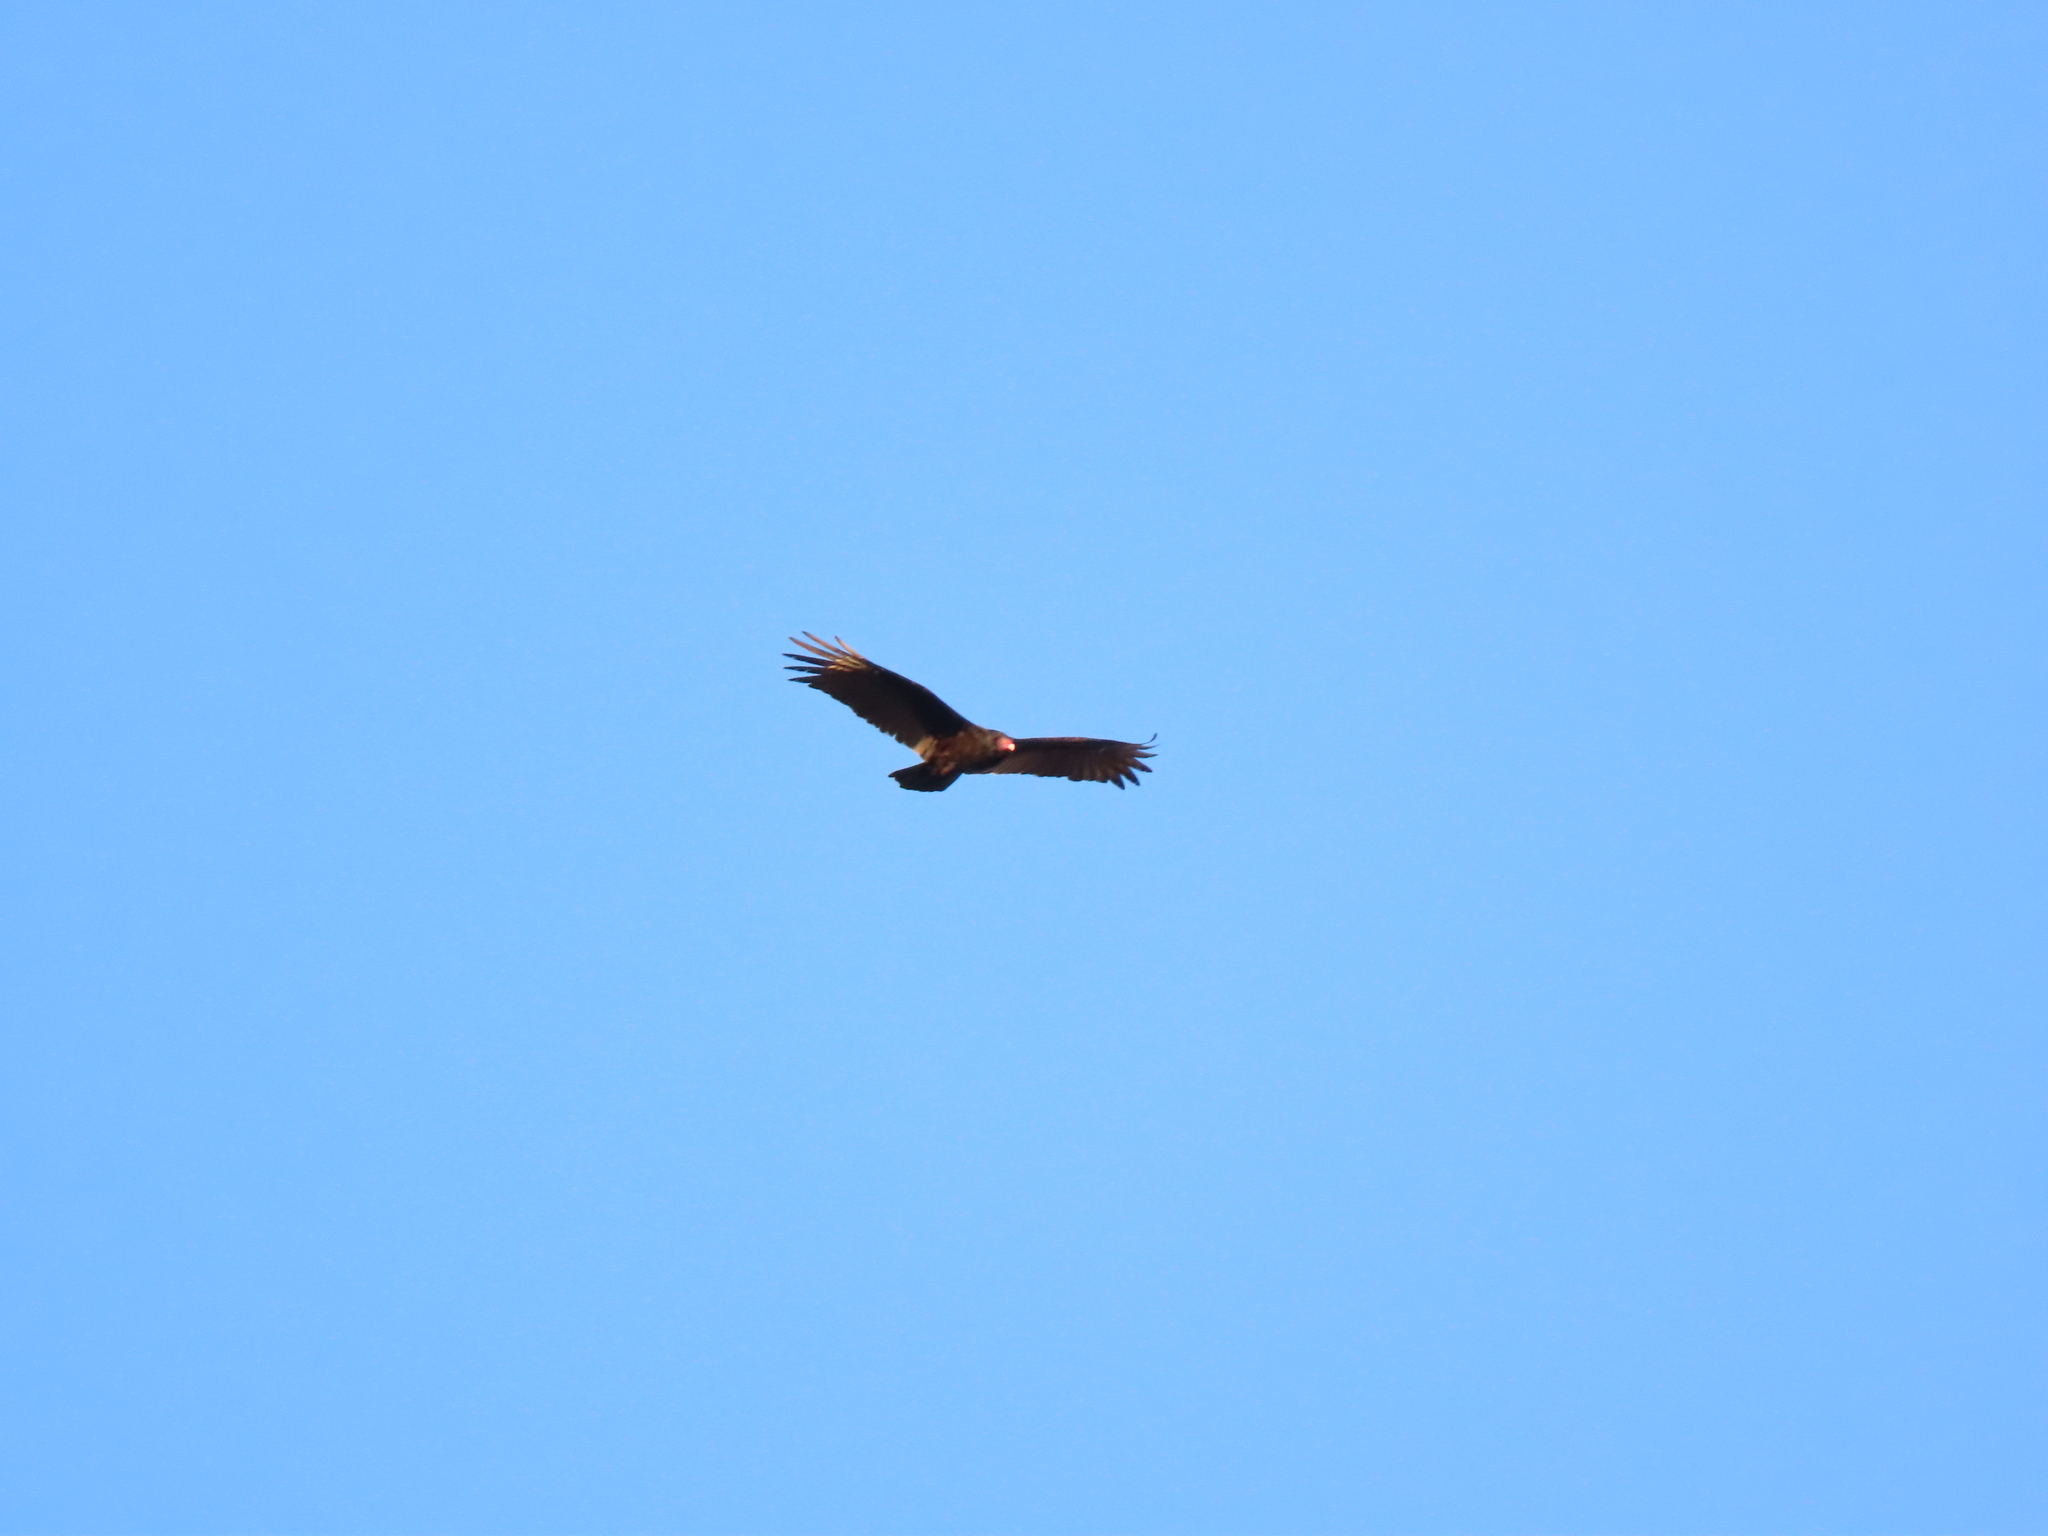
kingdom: Animalia
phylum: Chordata
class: Aves
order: Accipitriformes
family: Cathartidae
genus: Cathartes
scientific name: Cathartes aura
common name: Turkey vulture
